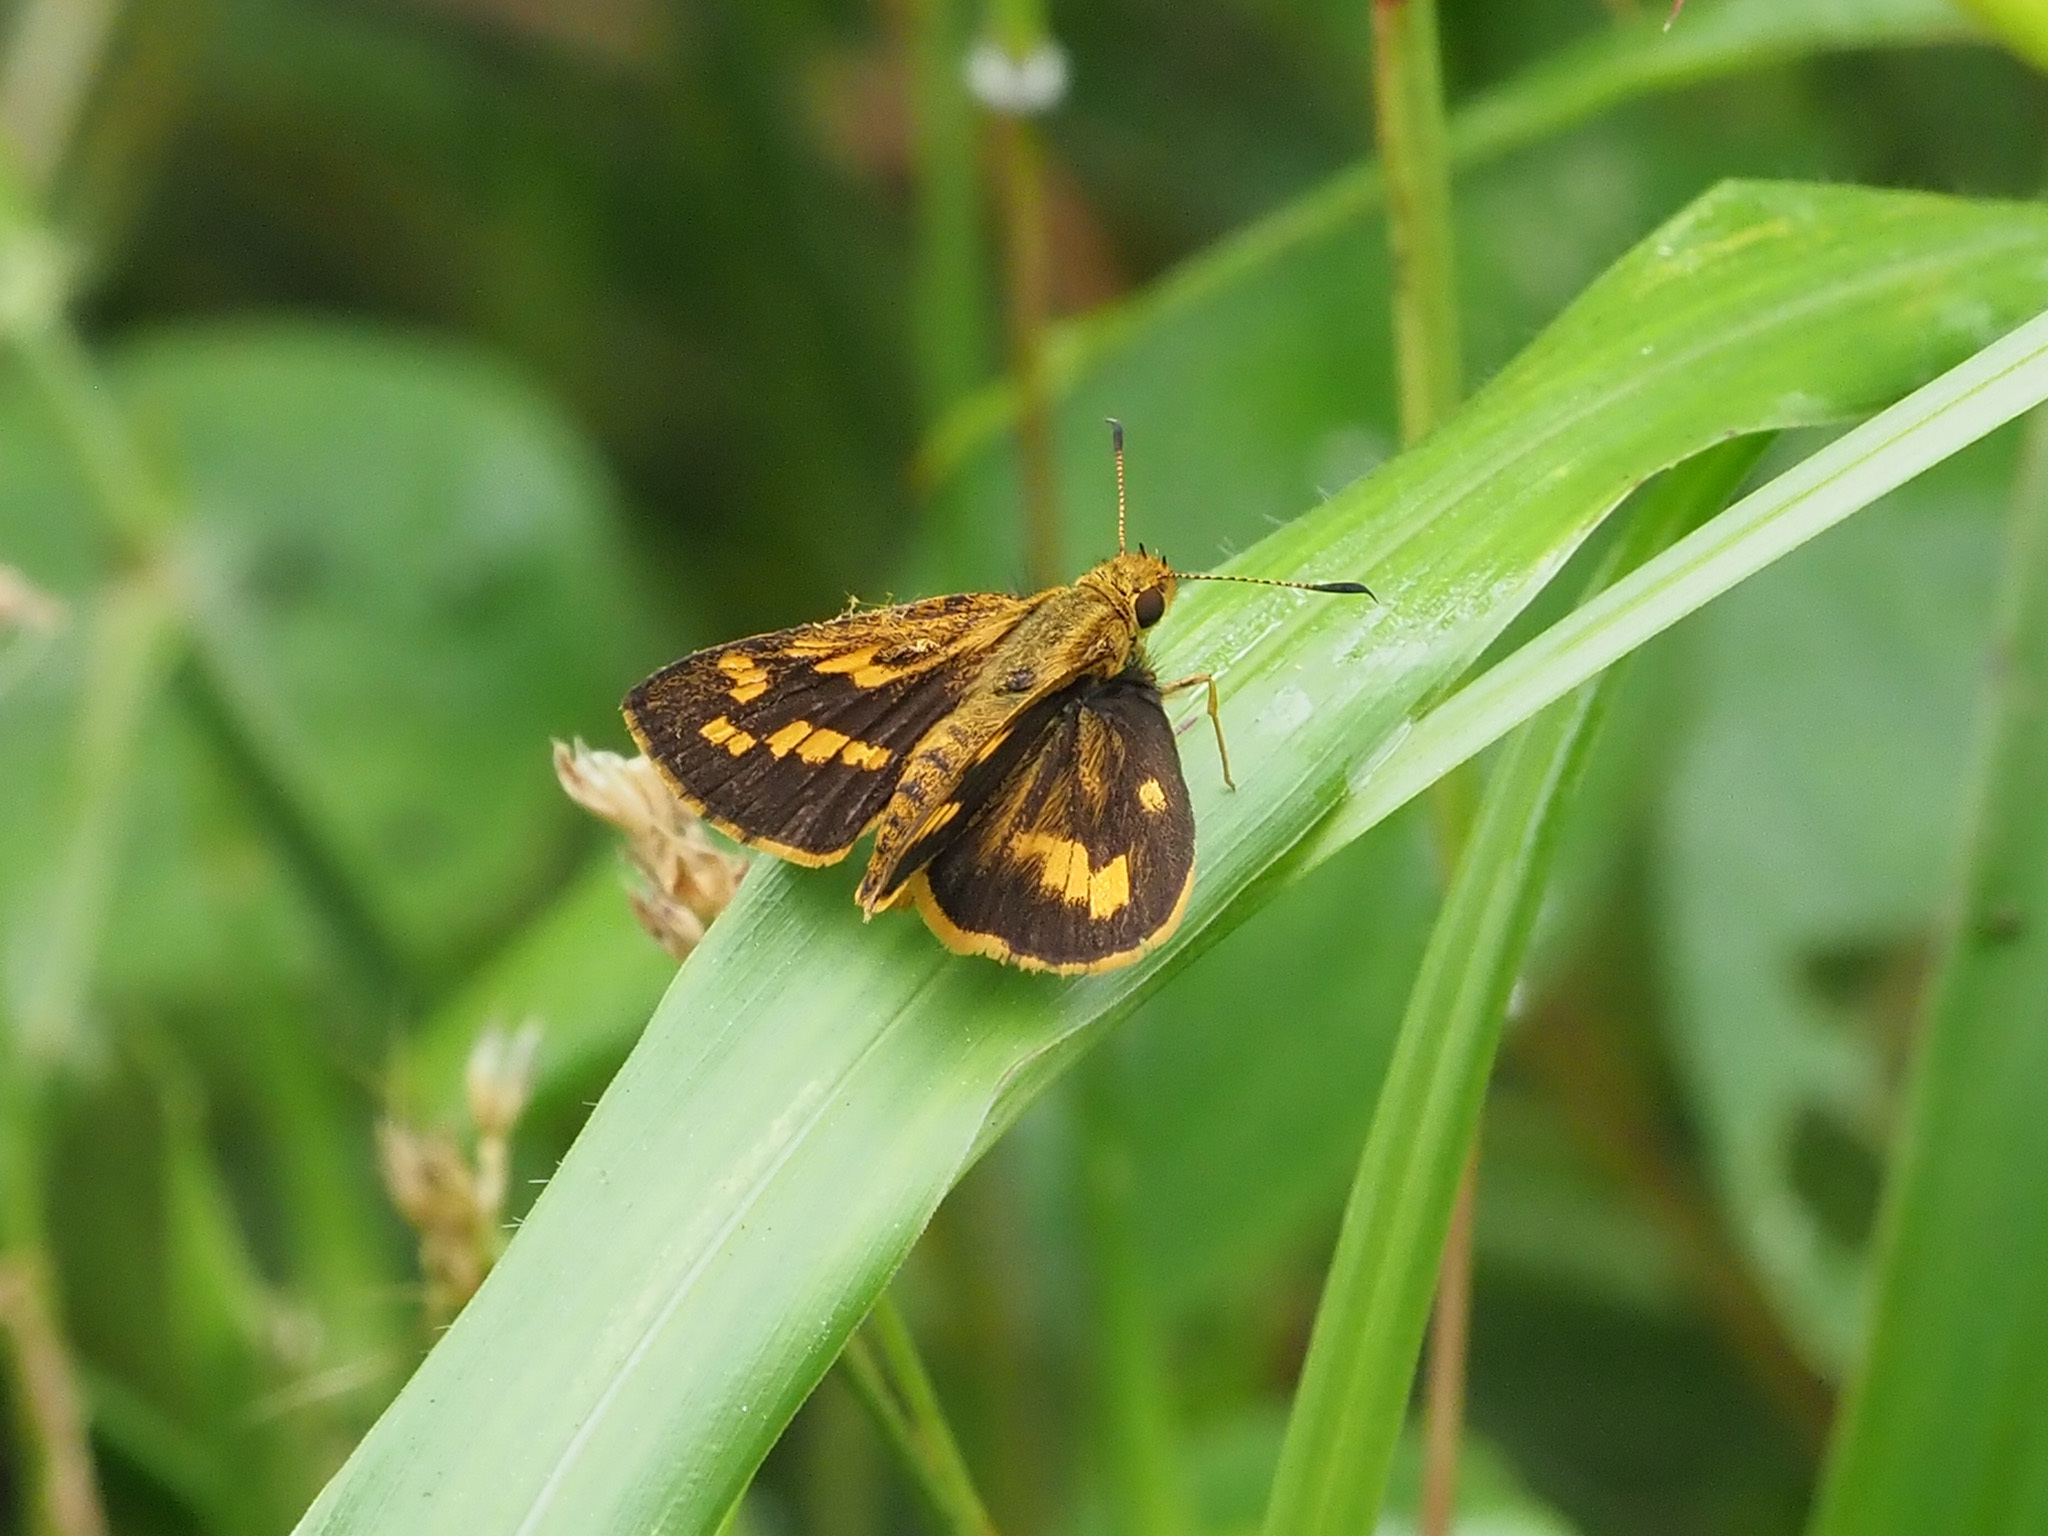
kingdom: Animalia
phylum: Arthropoda
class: Insecta
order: Lepidoptera
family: Hesperiidae
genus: Potanthus
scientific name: Potanthus omaha
